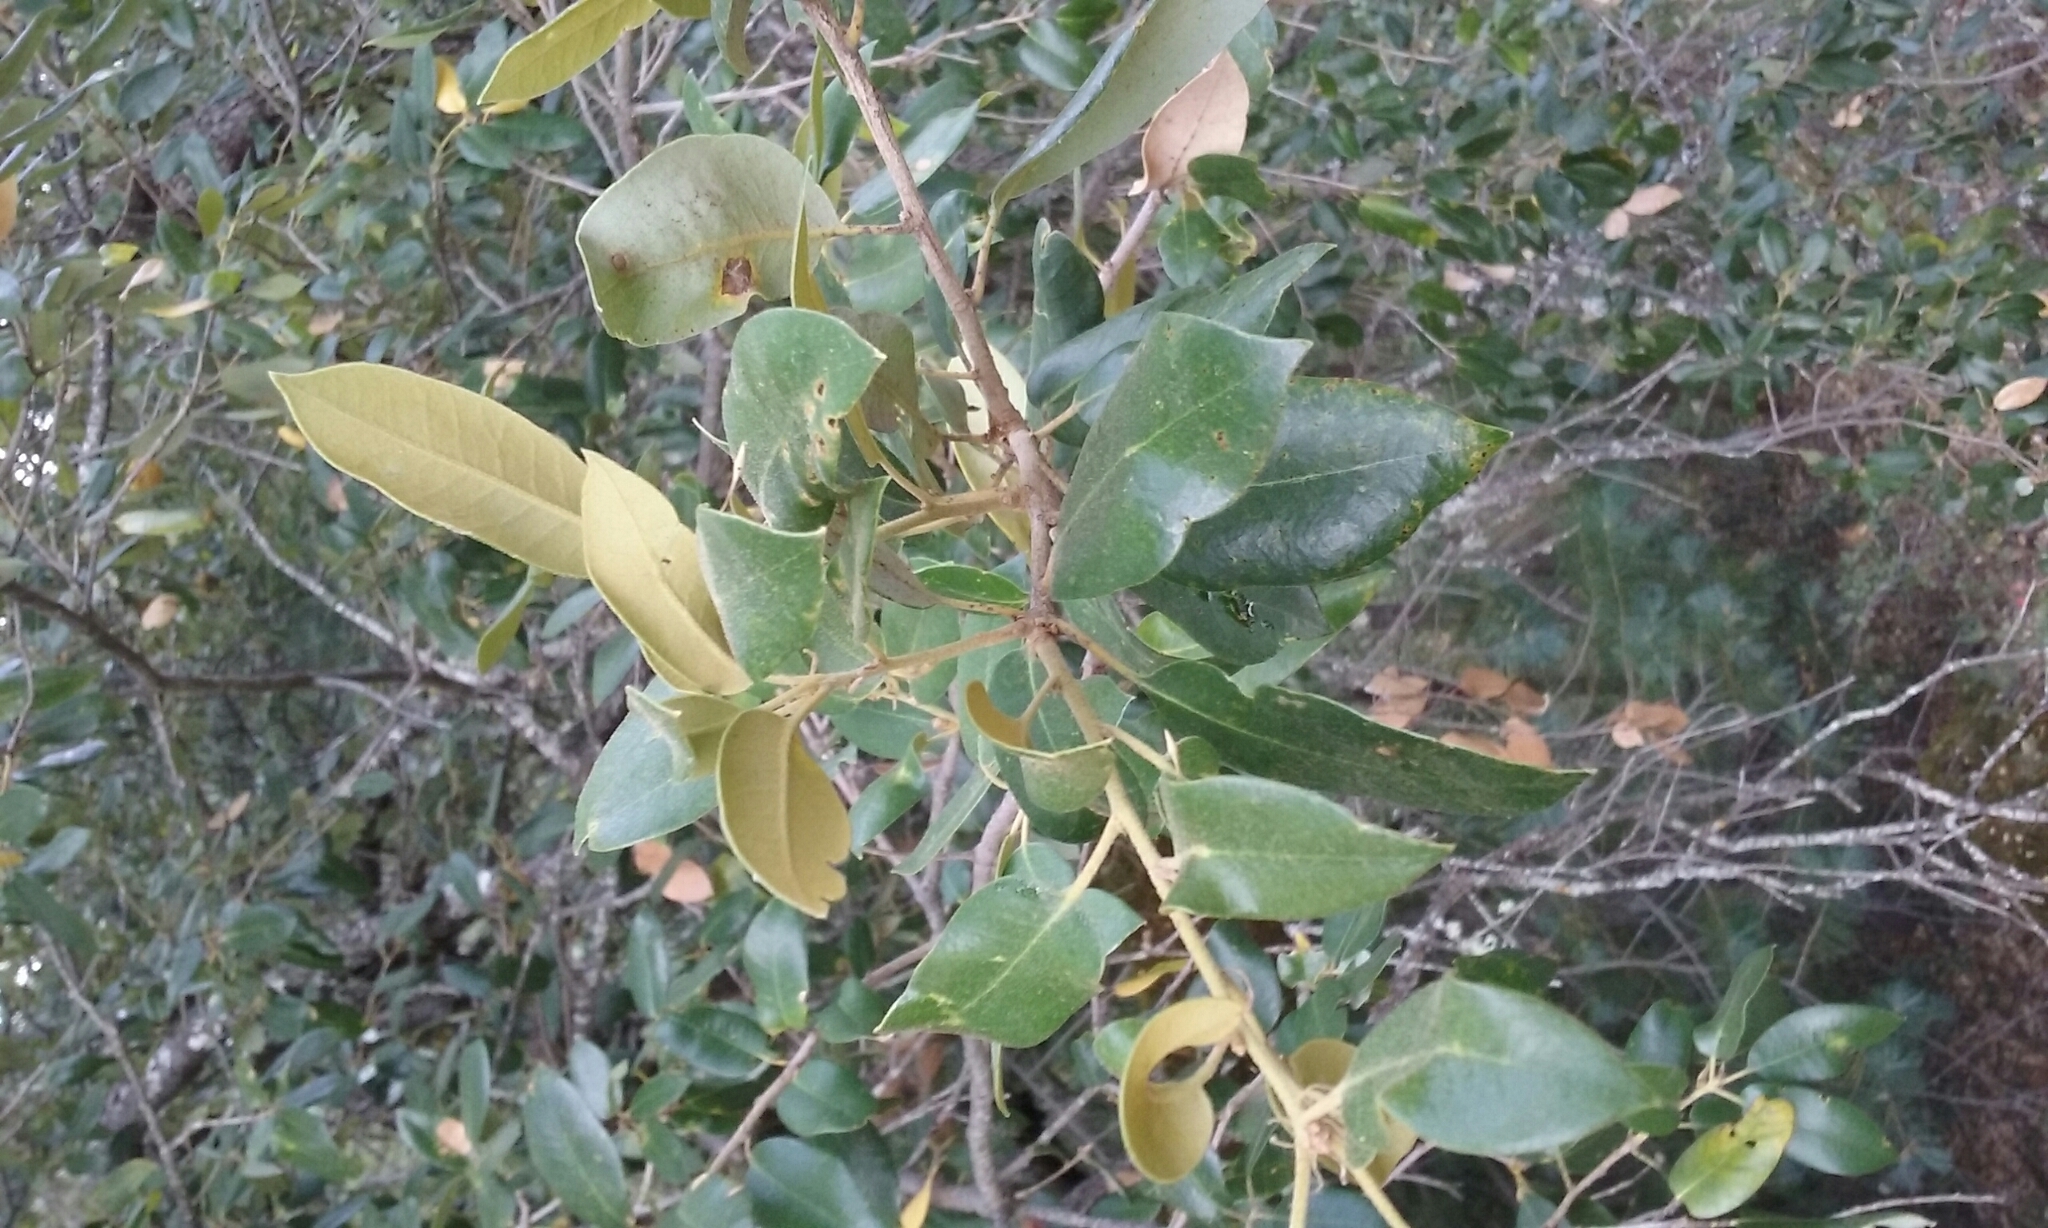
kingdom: Plantae
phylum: Tracheophyta
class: Magnoliopsida
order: Fagales
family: Fagaceae
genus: Quercus
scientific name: Quercus chrysolepis
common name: Canyon live oak
